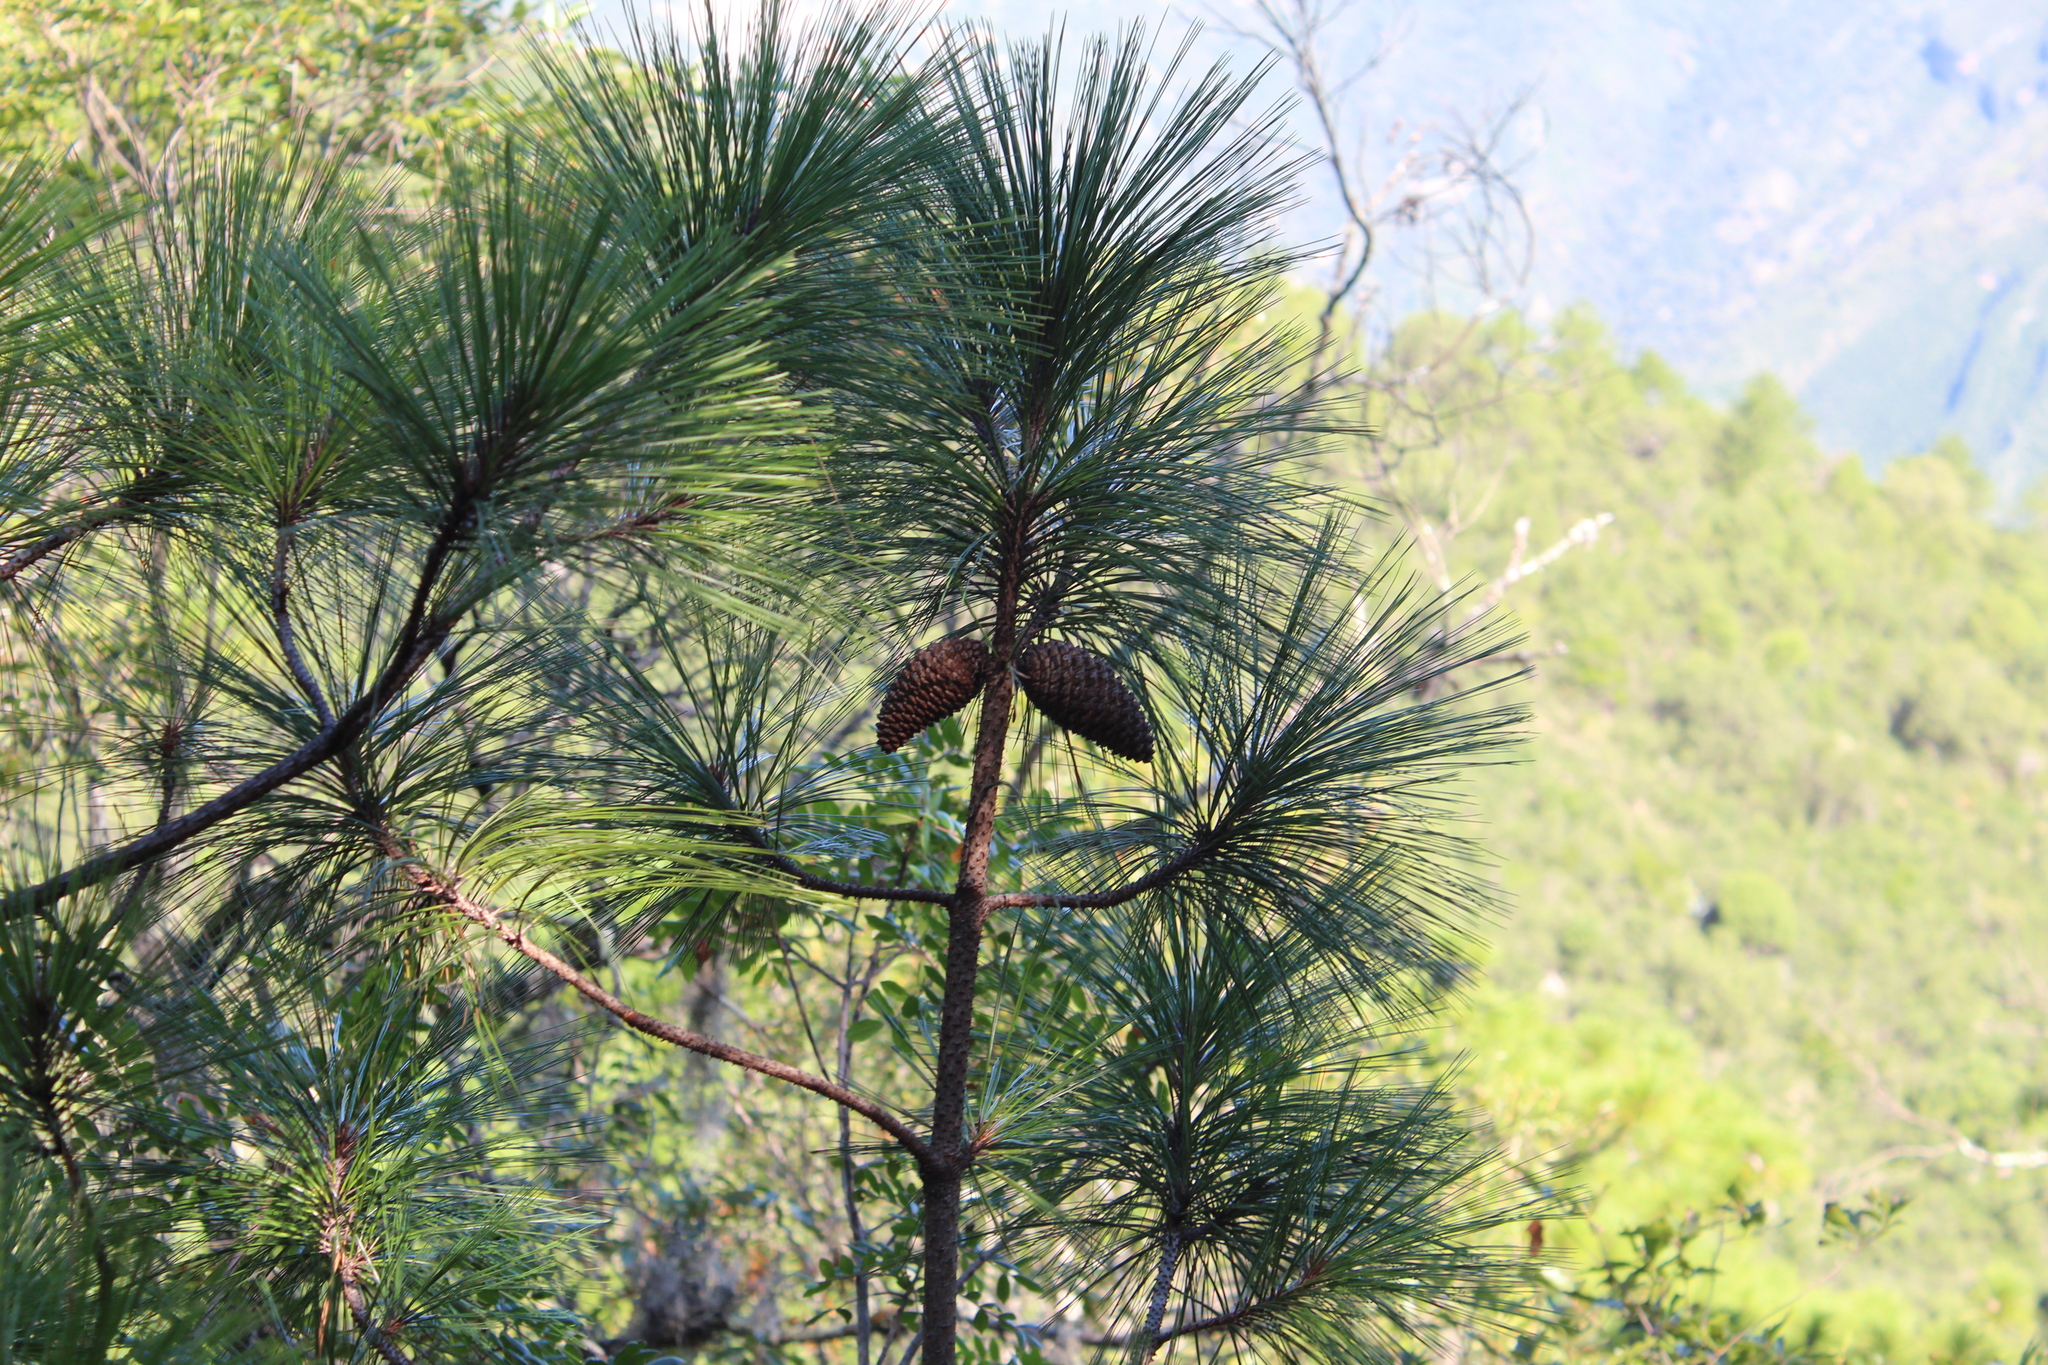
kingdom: Plantae
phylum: Tracheophyta
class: Pinopsida
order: Pinales
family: Pinaceae
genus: Pinus
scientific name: Pinus pseudostrobus
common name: False weymouth pine
